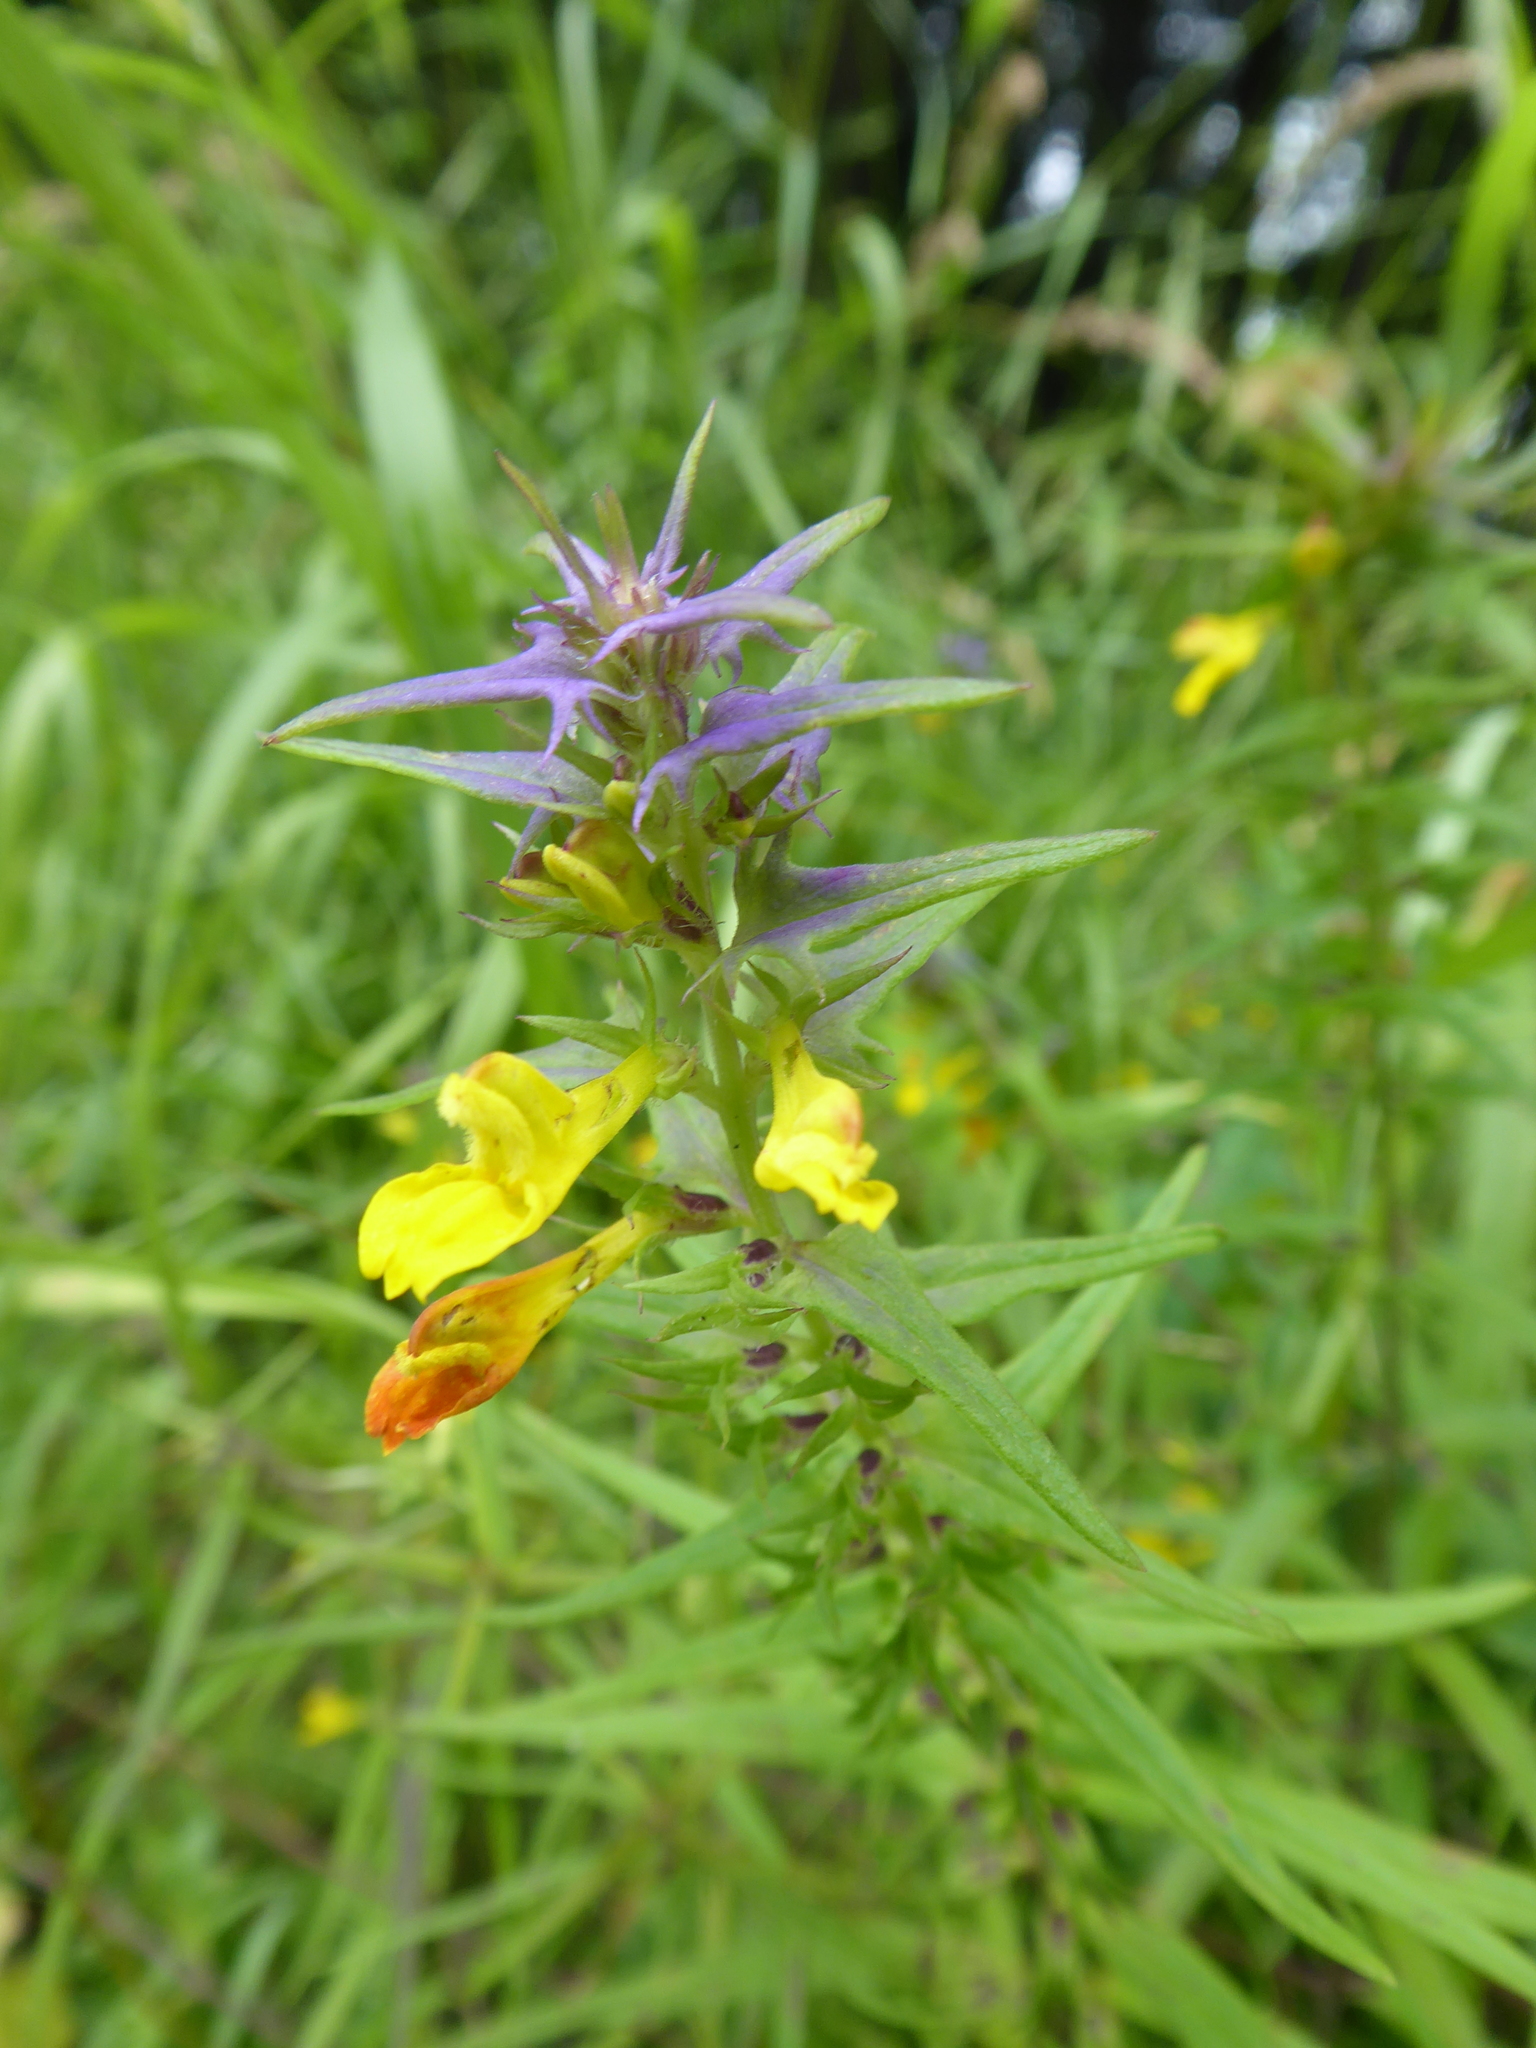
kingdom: Plantae
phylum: Tracheophyta
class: Magnoliopsida
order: Lamiales
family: Orobanchaceae
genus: Melampyrum
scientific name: Melampyrum nemorosum
